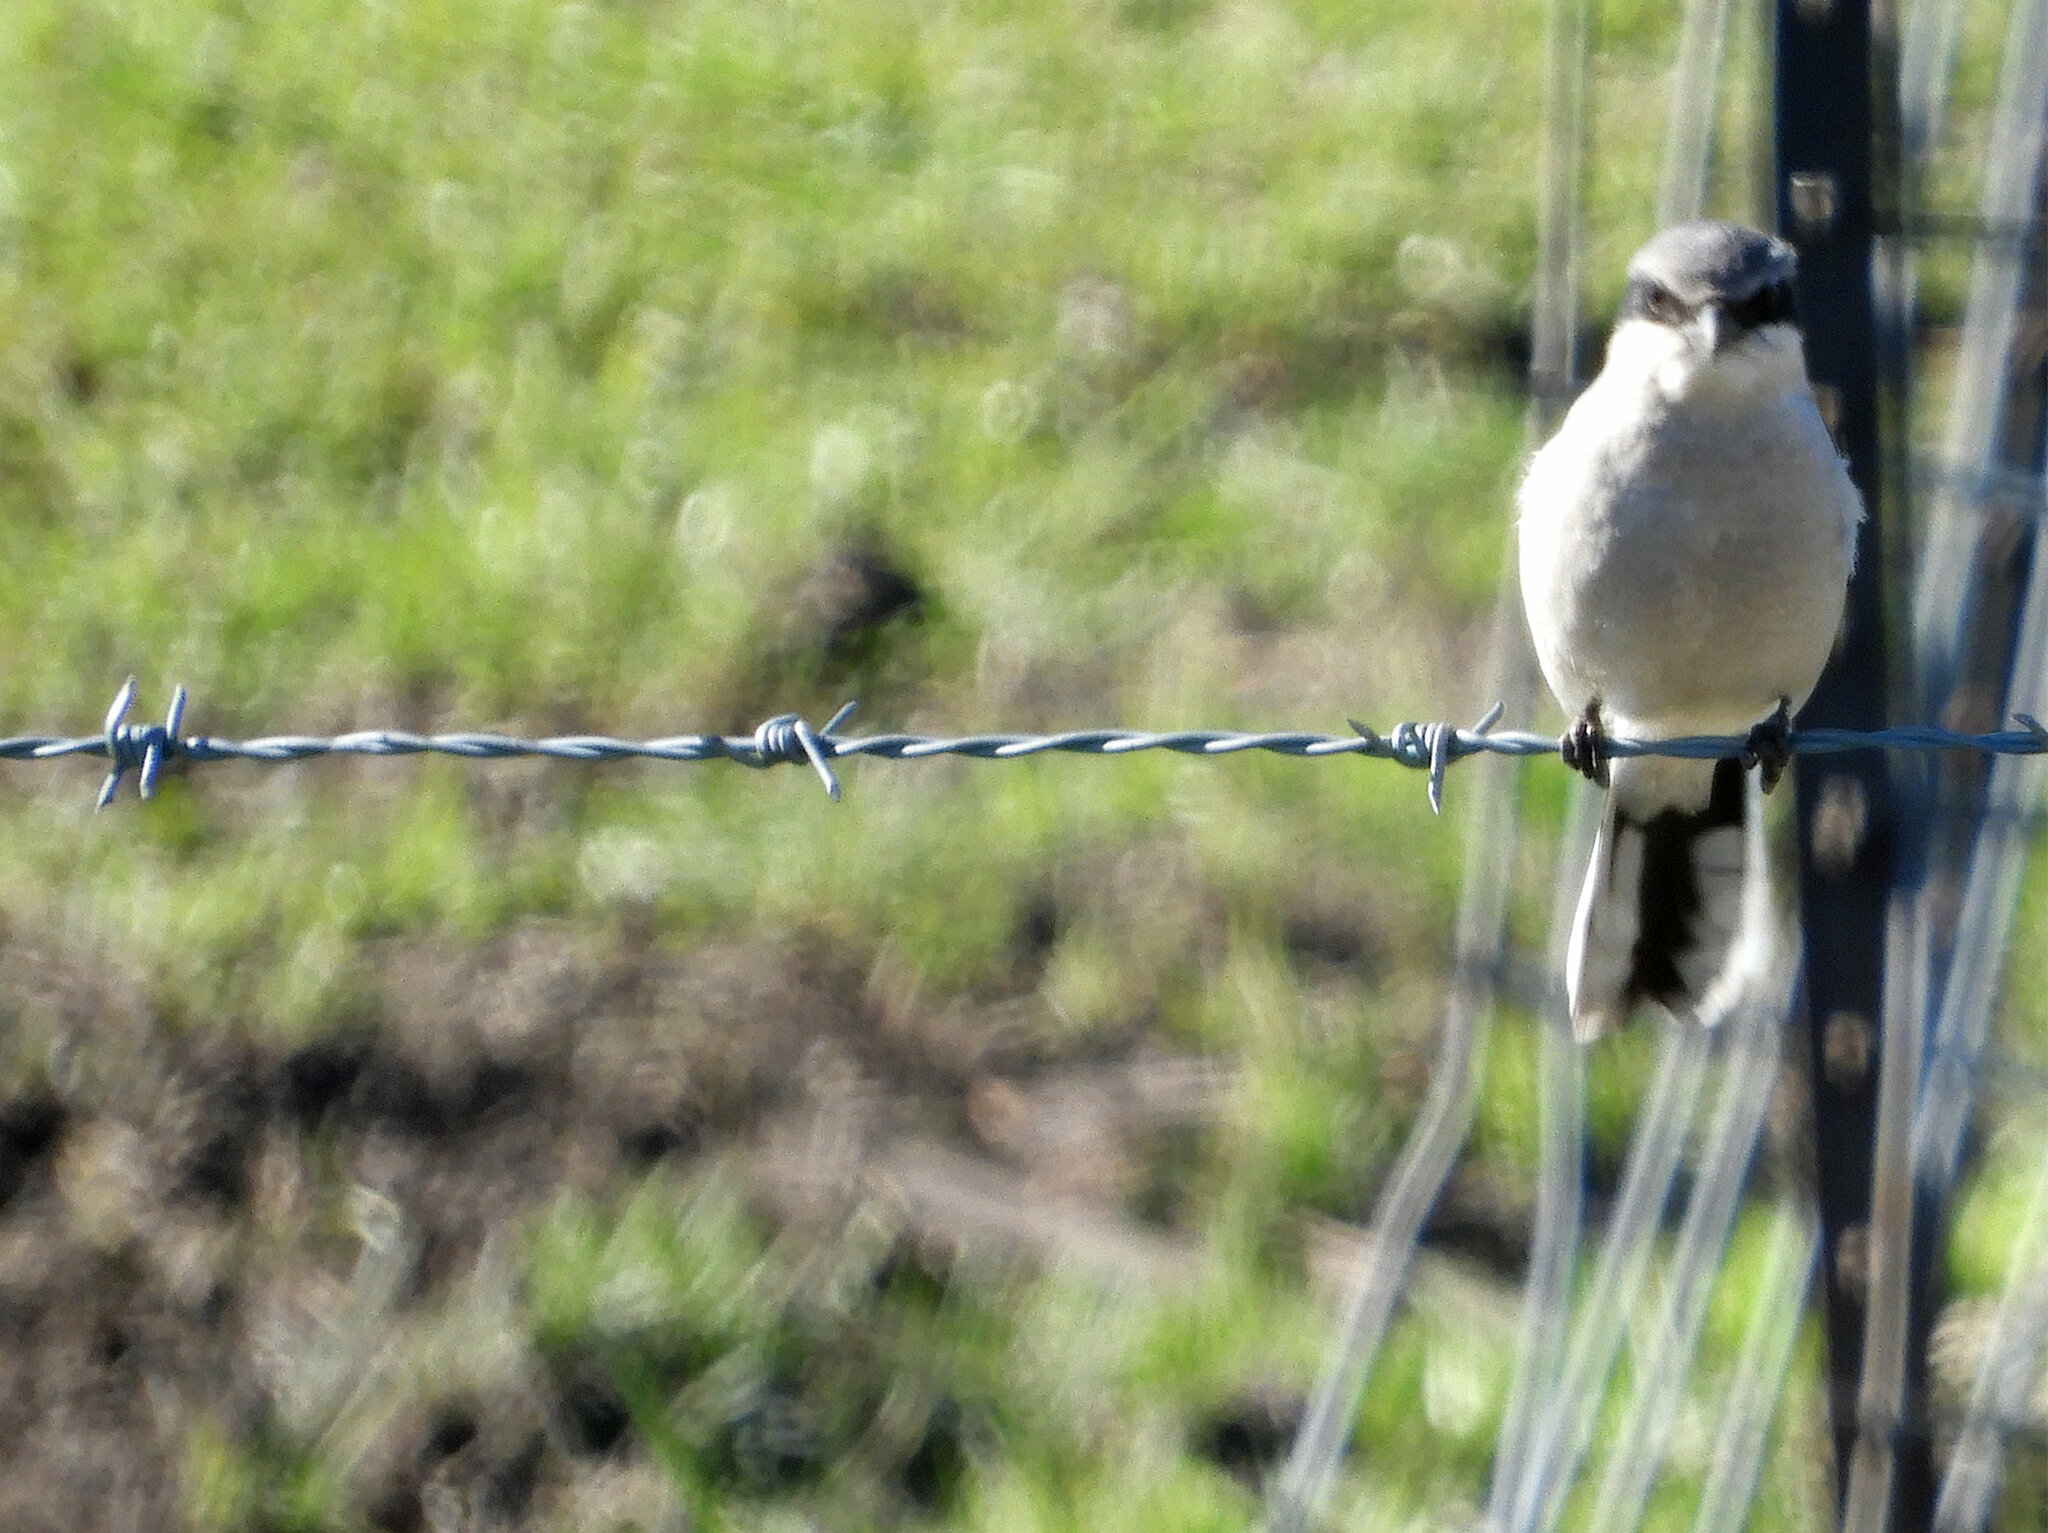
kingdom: Animalia
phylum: Chordata
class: Aves
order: Passeriformes
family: Laniidae
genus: Lanius
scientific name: Lanius ludovicianus
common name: Loggerhead shrike
